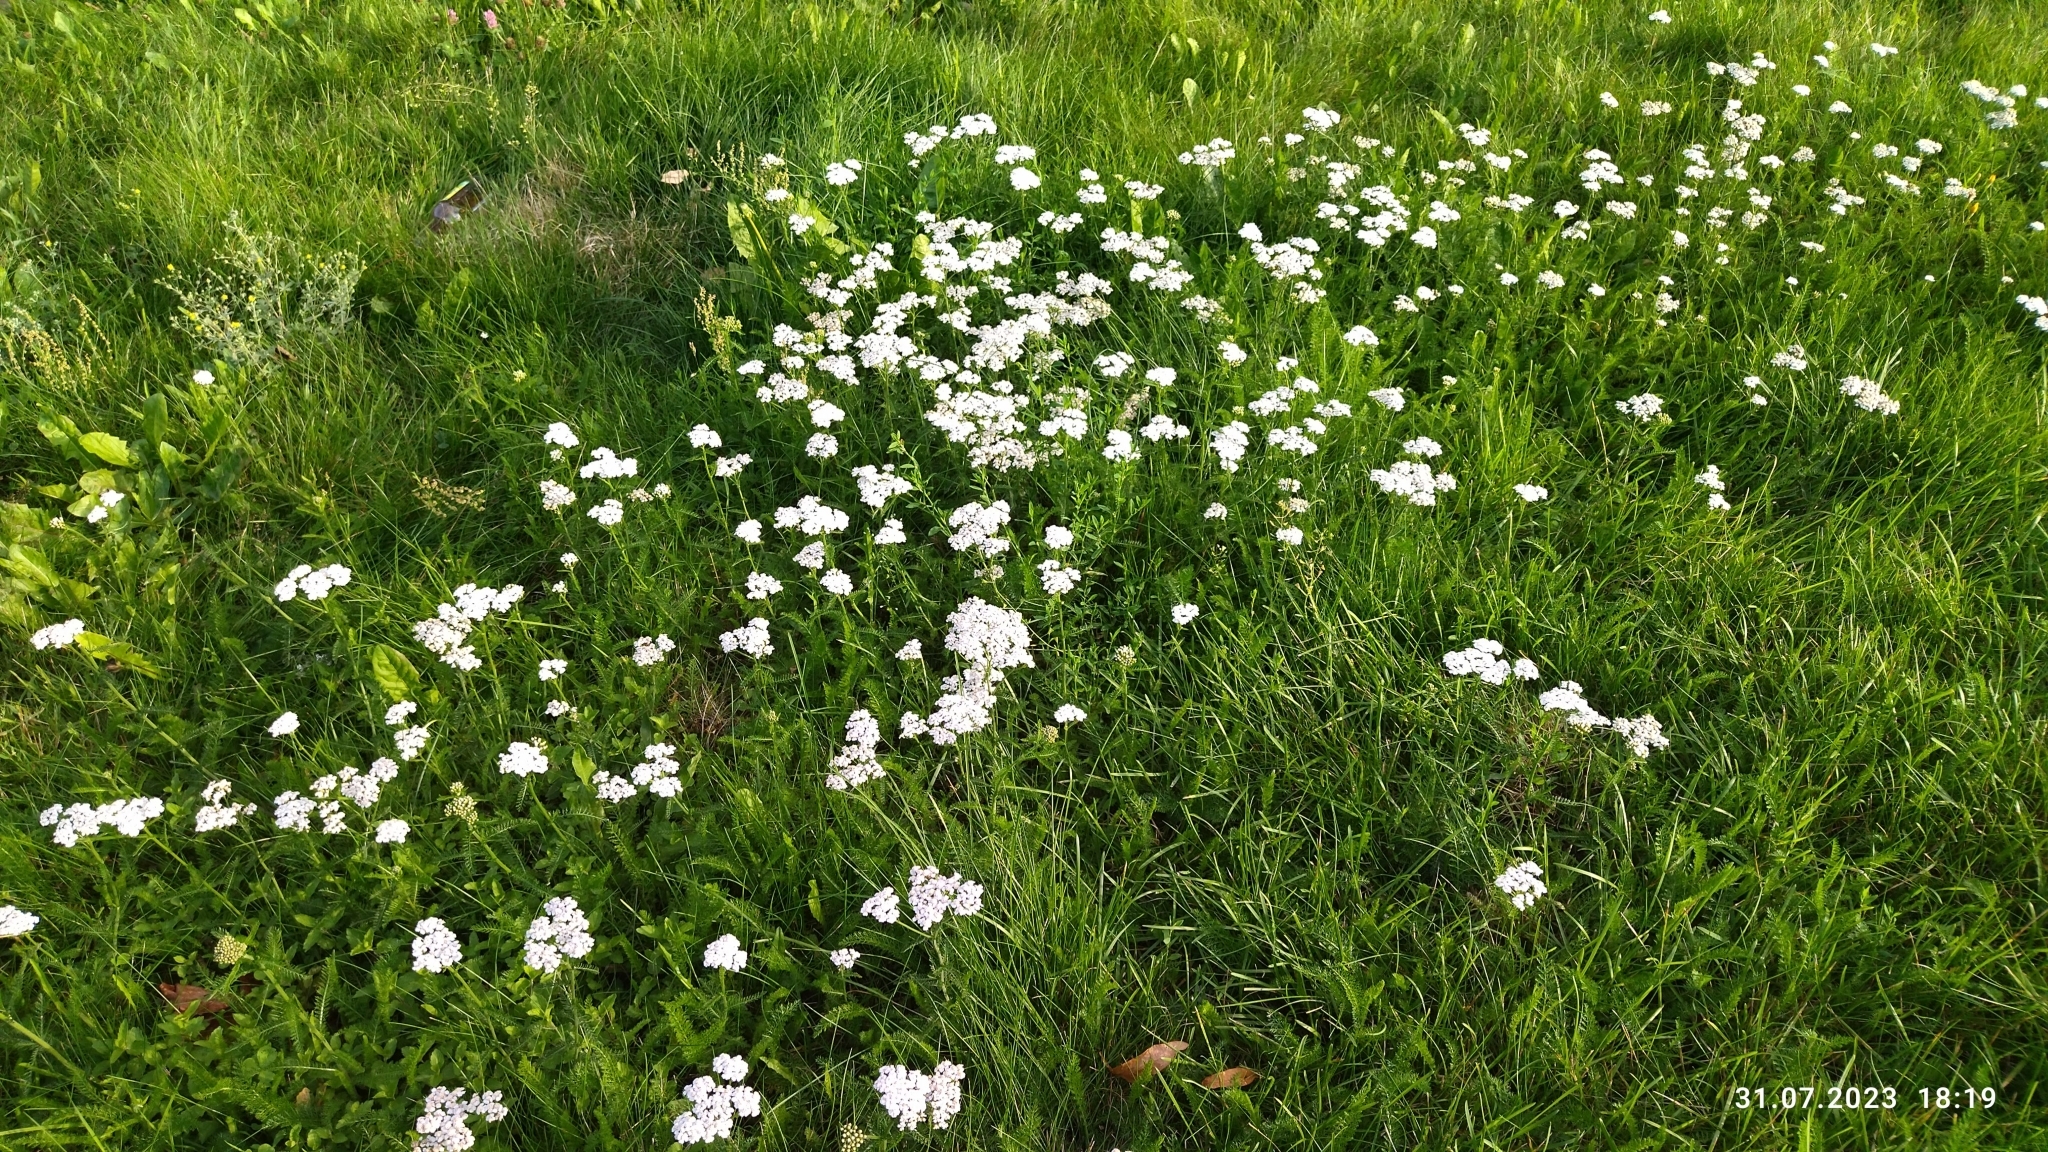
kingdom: Plantae
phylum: Tracheophyta
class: Magnoliopsida
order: Asterales
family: Asteraceae
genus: Achillea
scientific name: Achillea millefolium
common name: Yarrow
